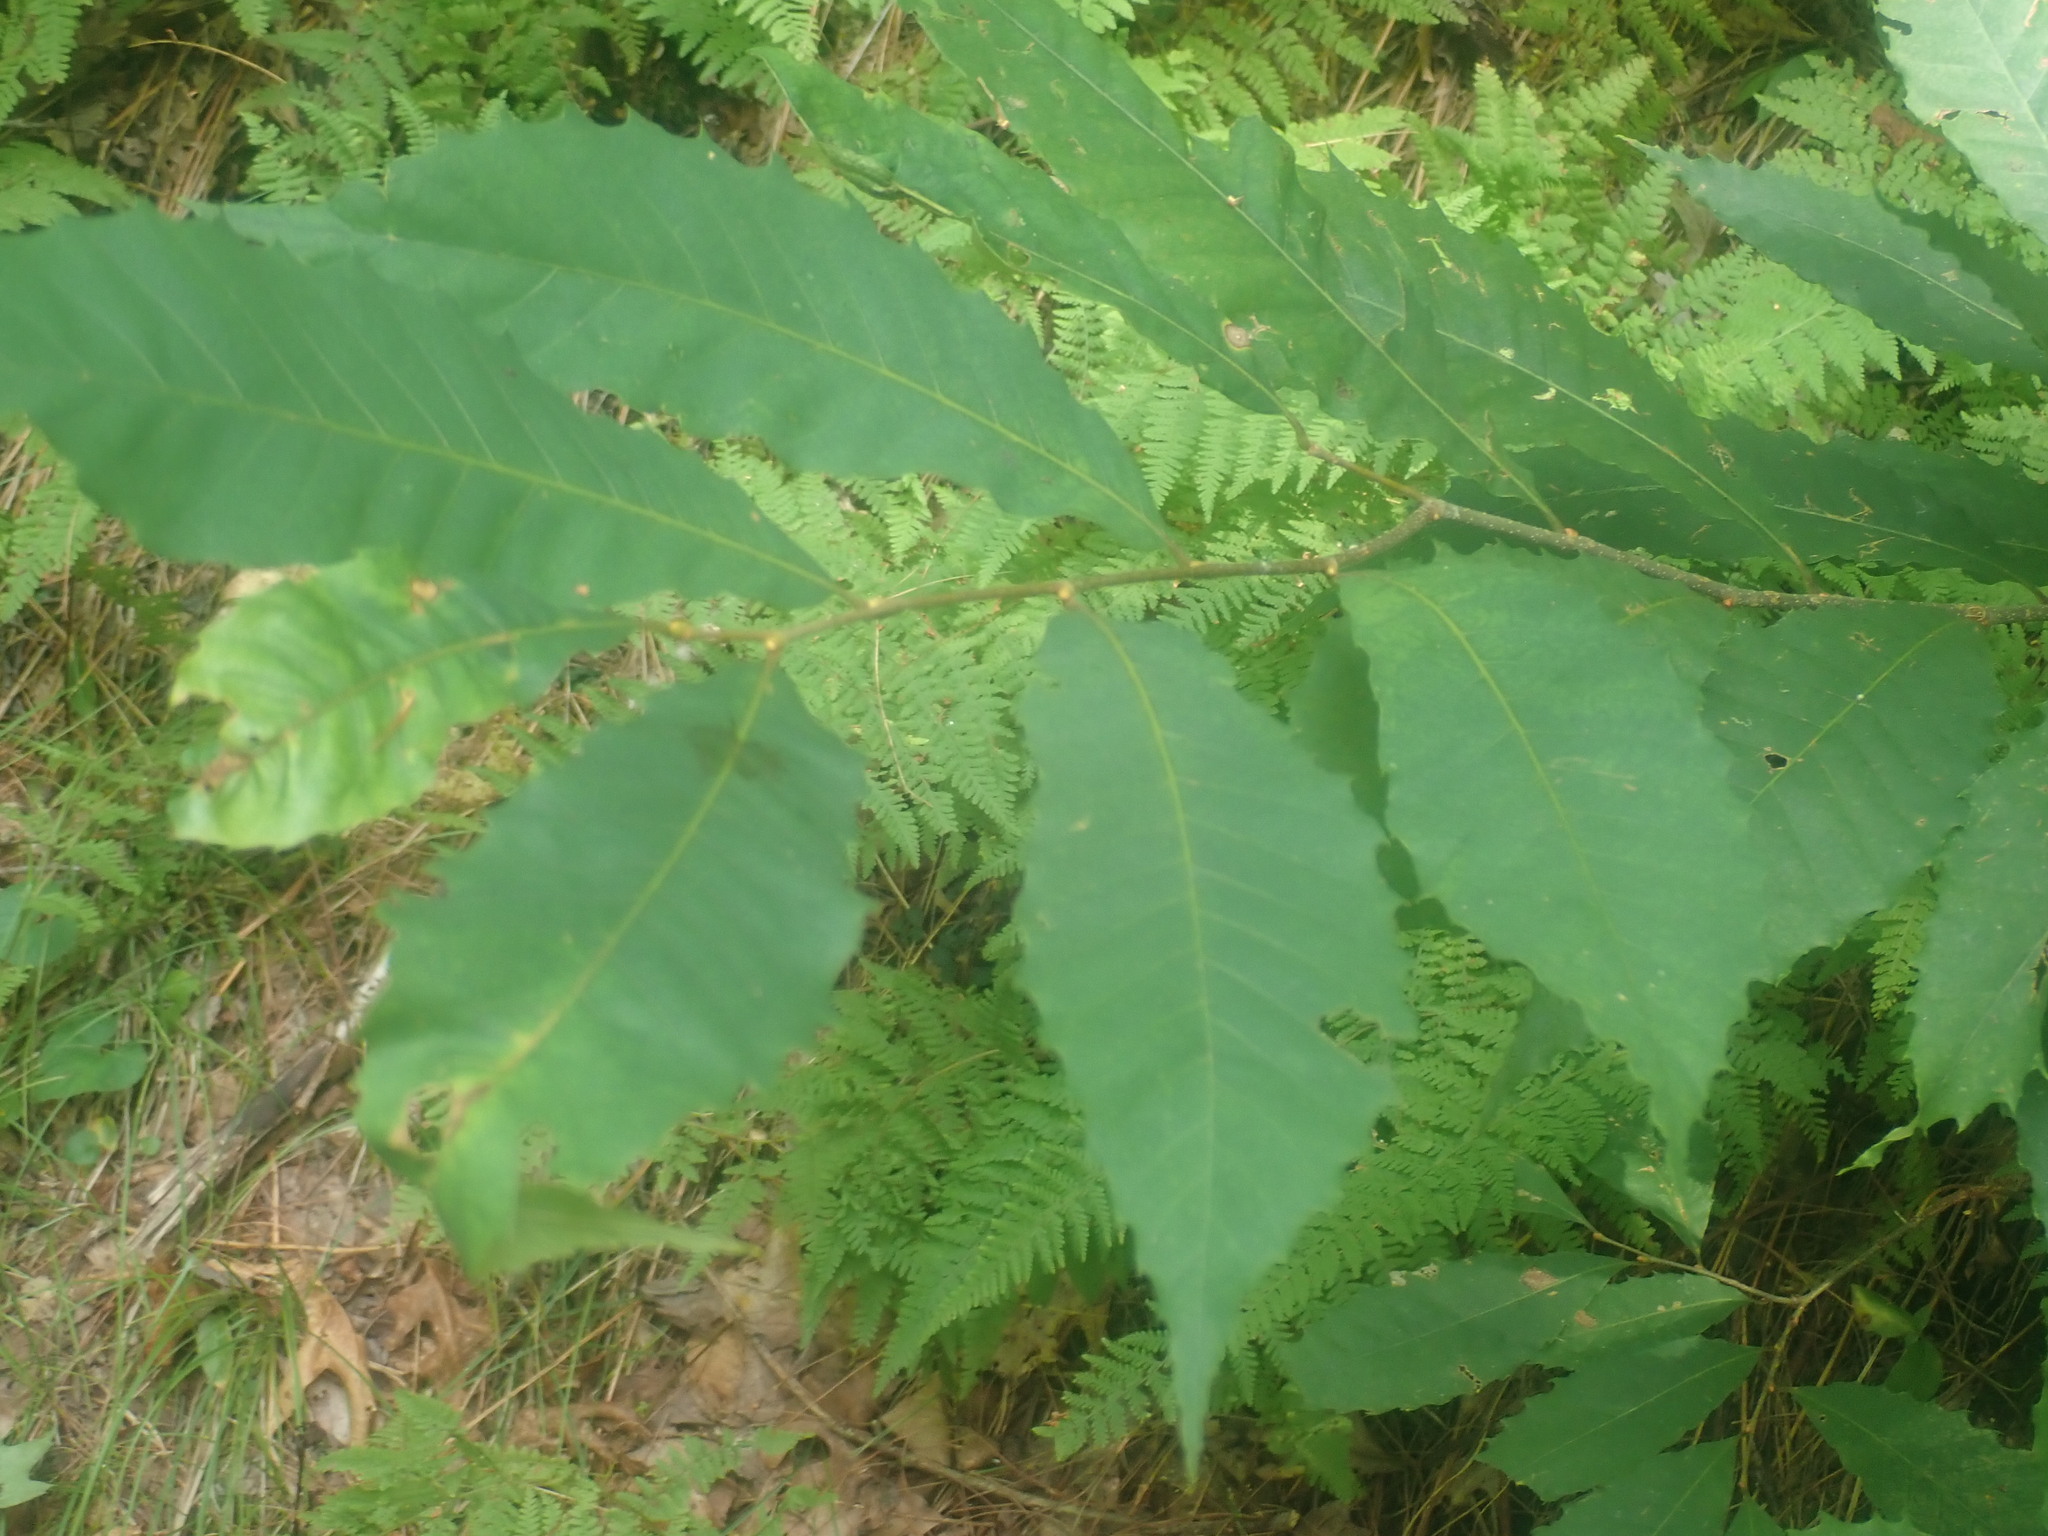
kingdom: Plantae
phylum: Tracheophyta
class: Magnoliopsida
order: Fagales
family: Fagaceae
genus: Castanea
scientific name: Castanea dentata
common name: American chestnut
